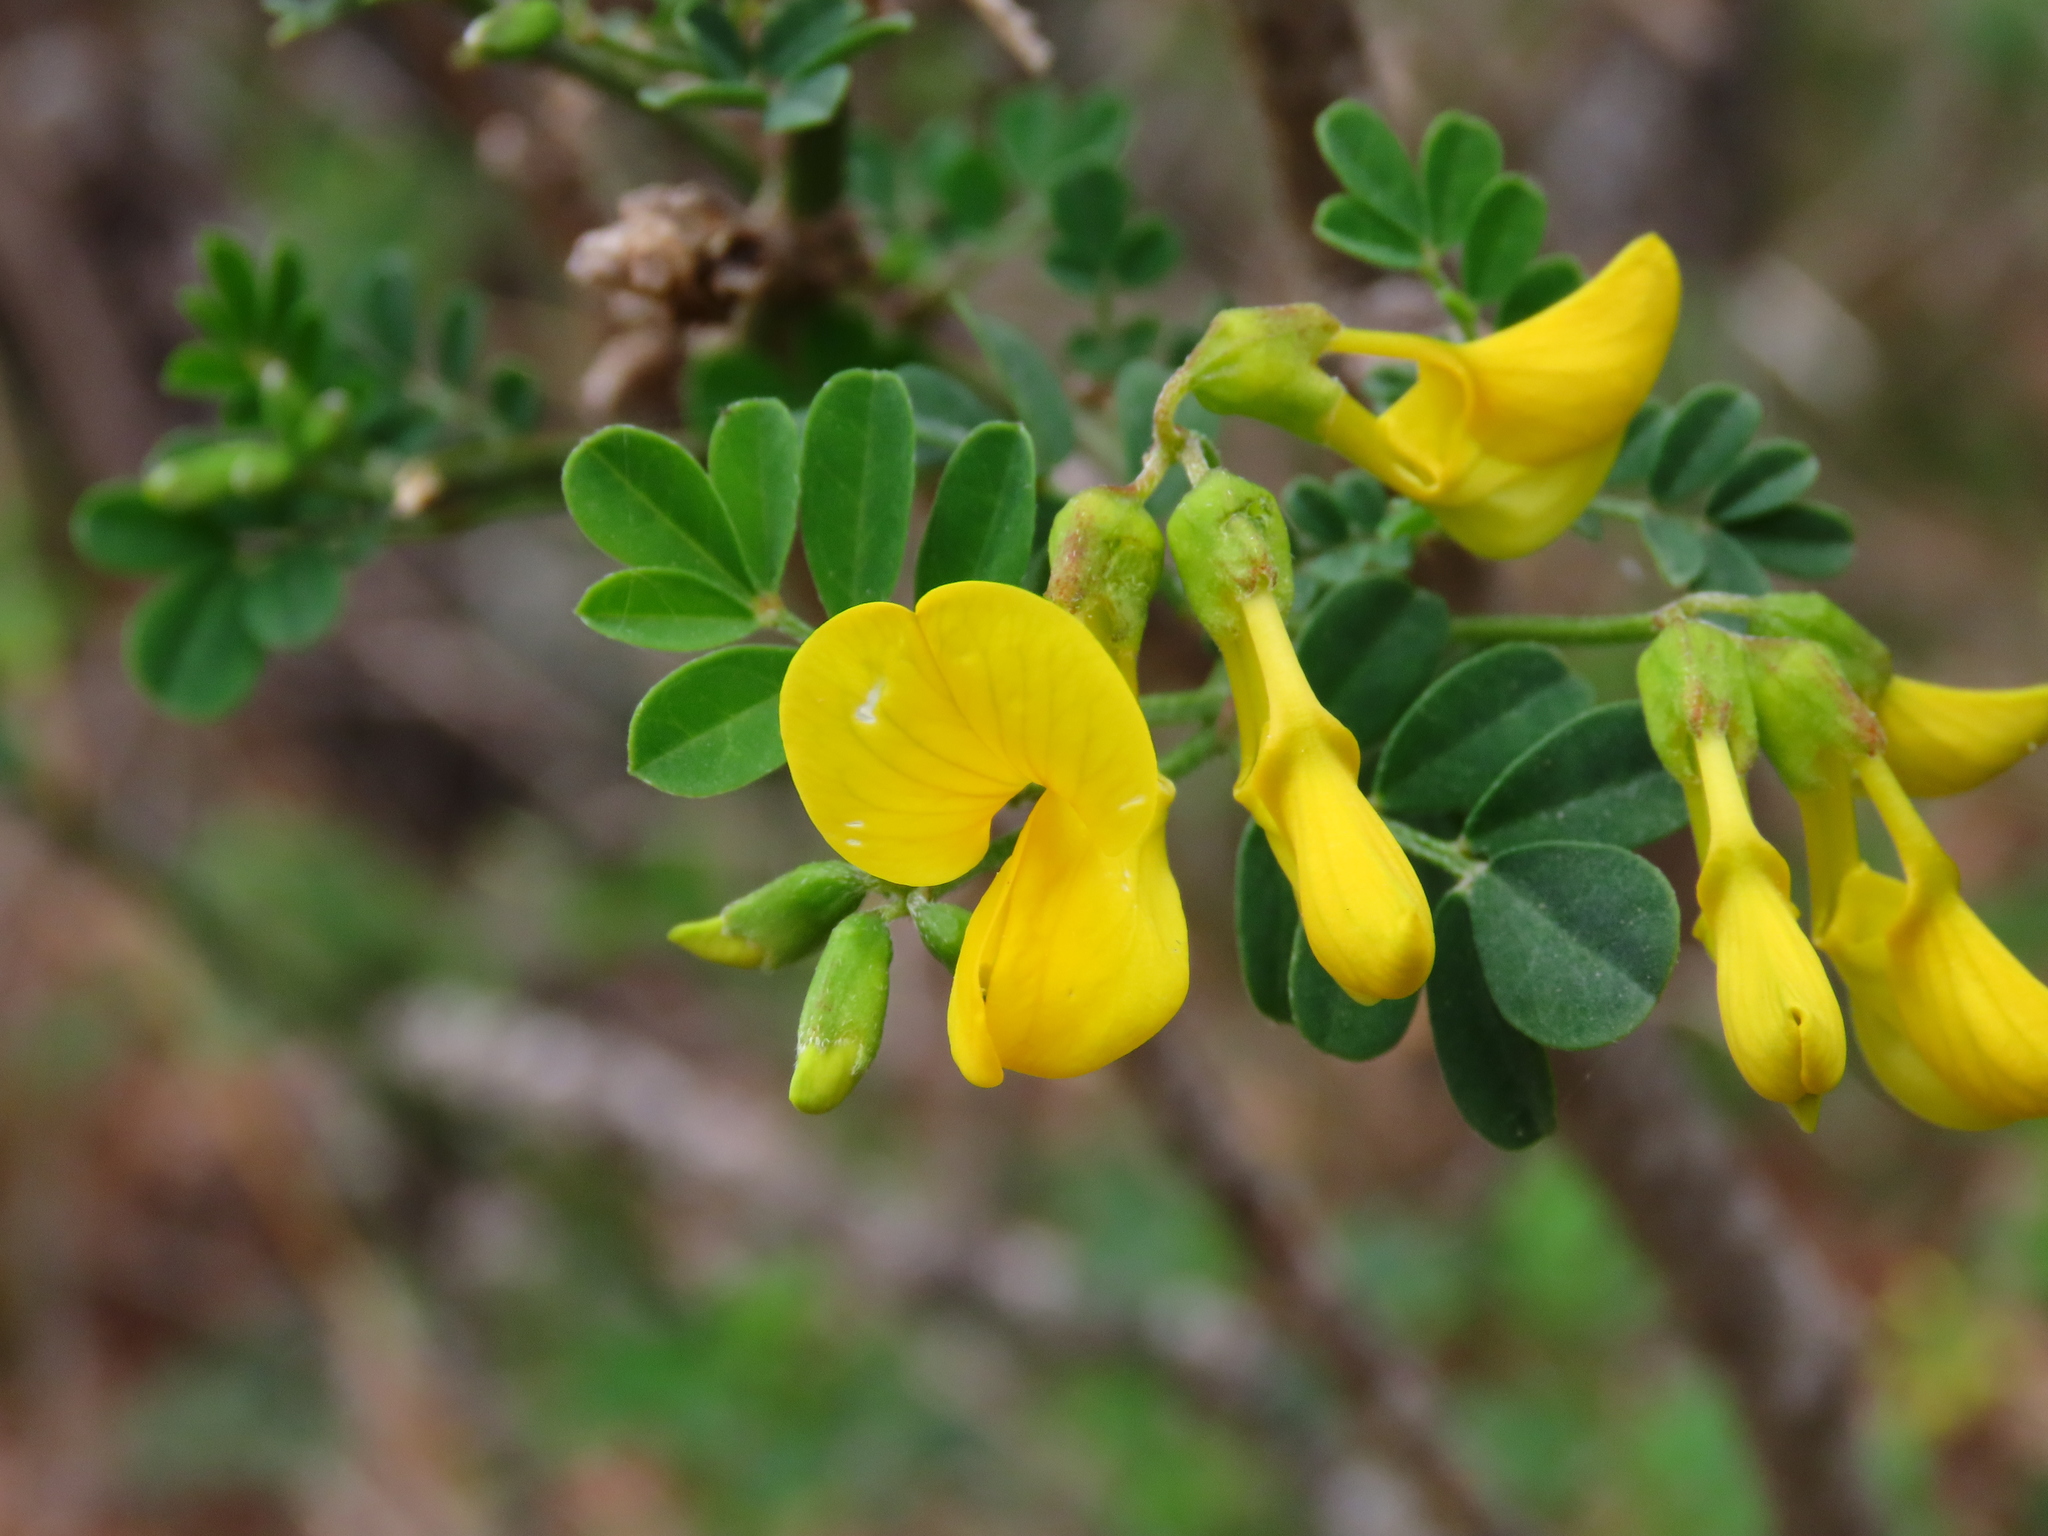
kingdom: Plantae
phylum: Tracheophyta
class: Magnoliopsida
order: Fabales
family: Fabaceae
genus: Hippocrepis
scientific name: Hippocrepis emerus
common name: Scorpion senna
